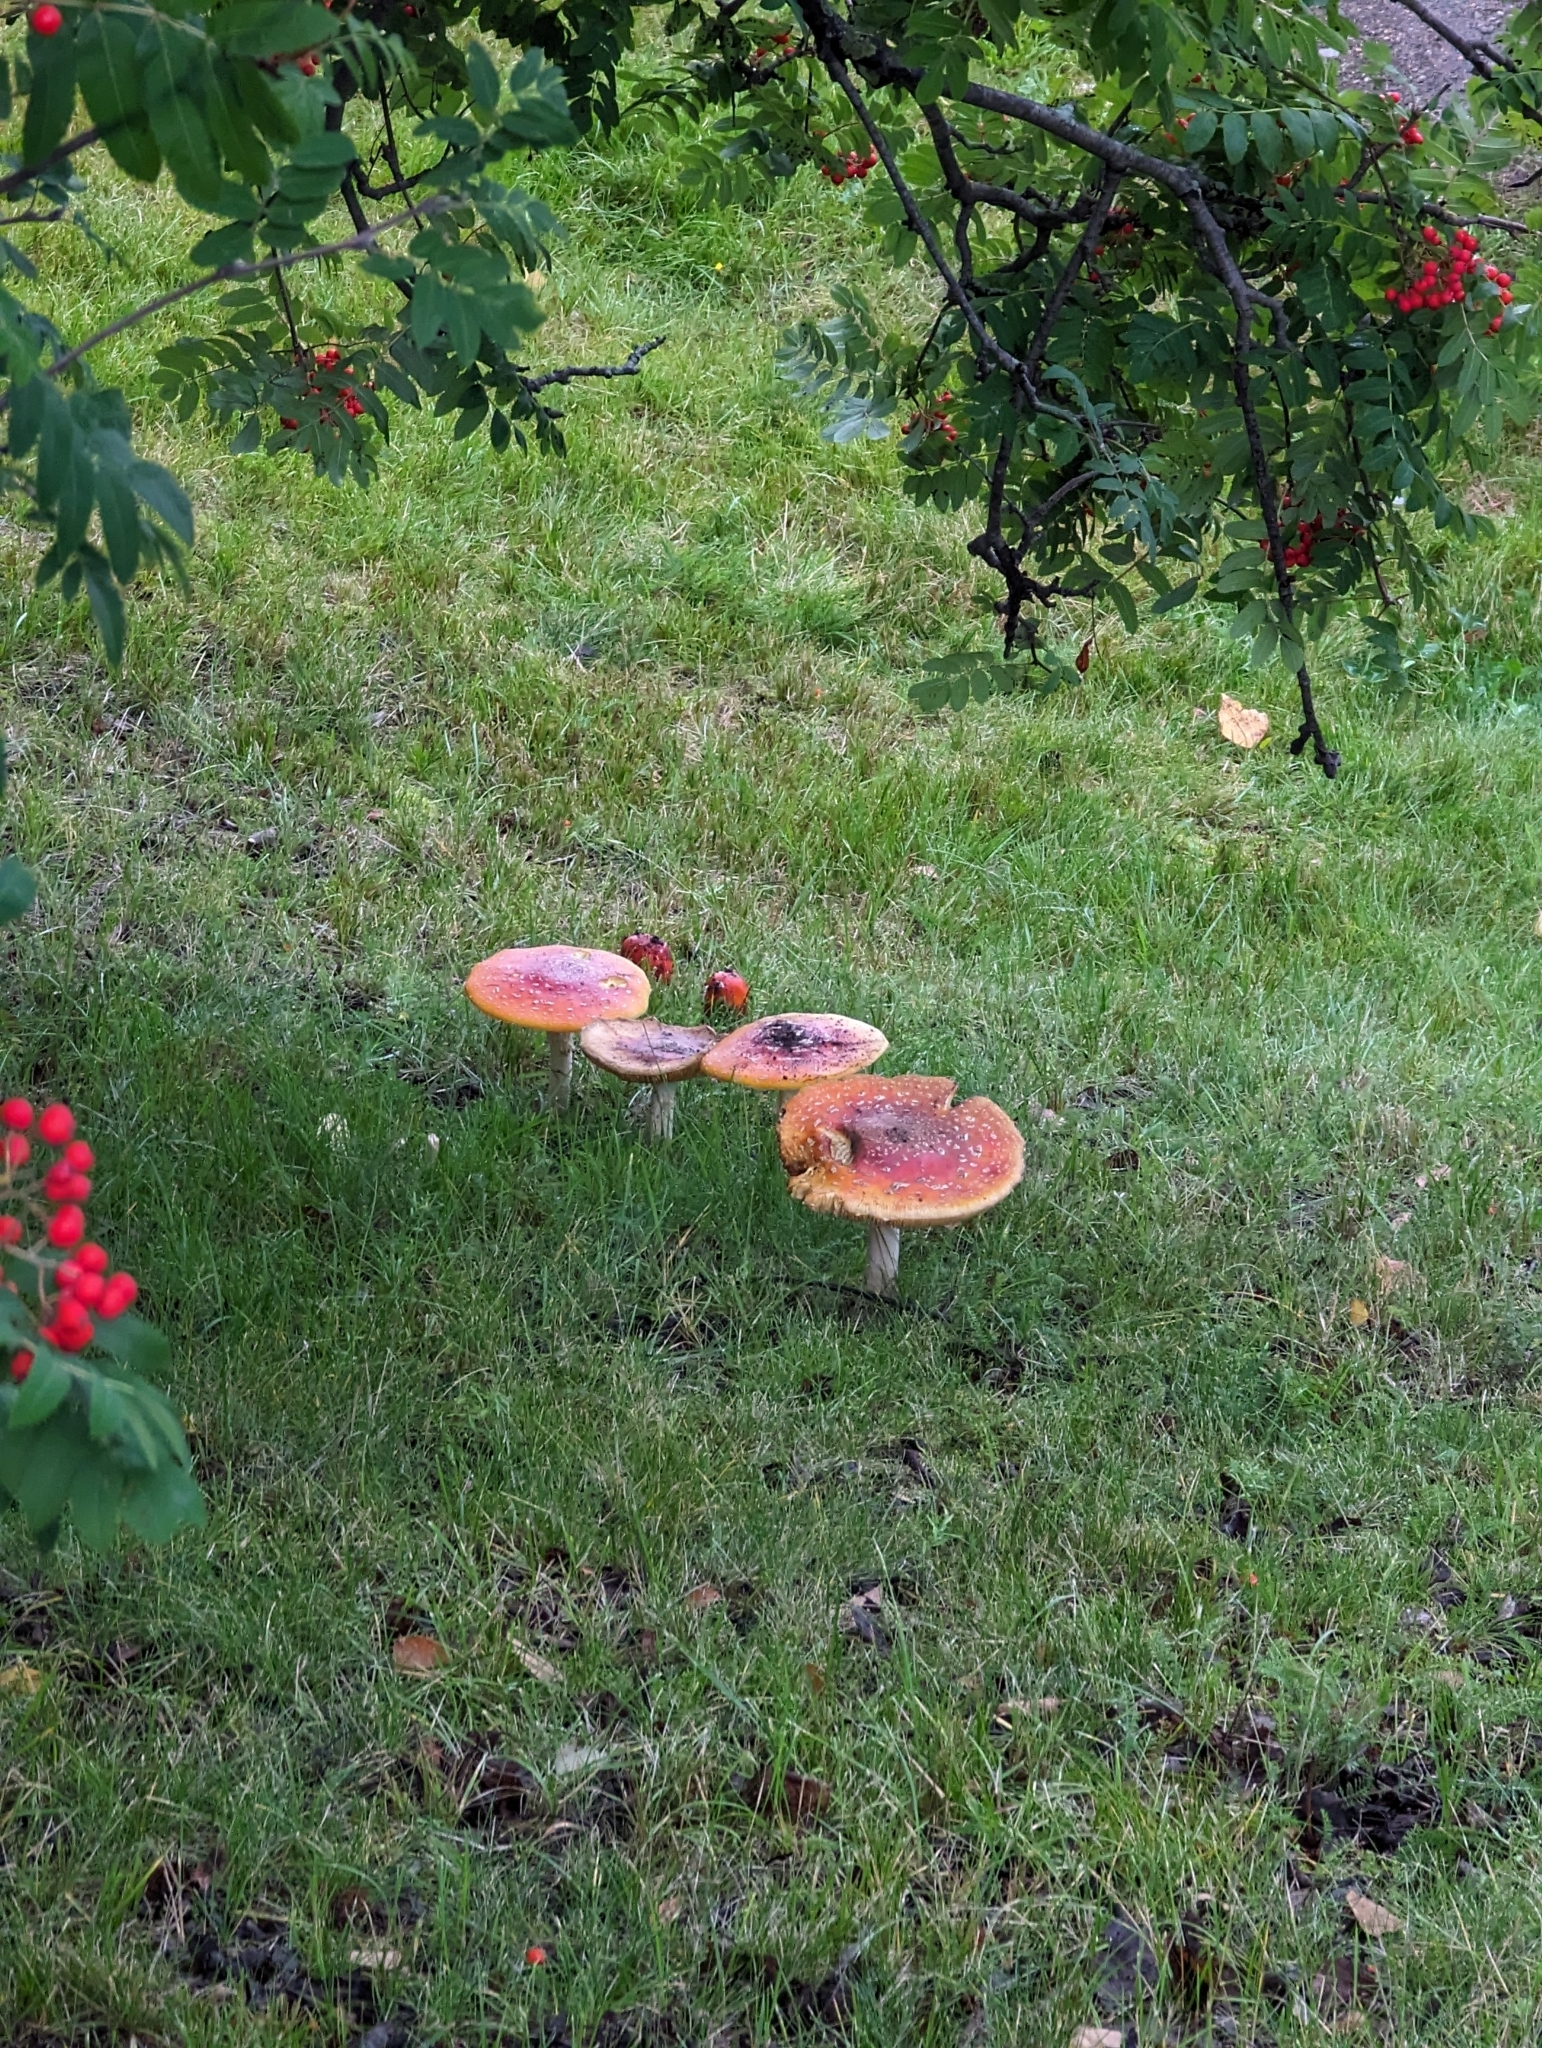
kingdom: Fungi
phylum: Basidiomycota
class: Agaricomycetes
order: Agaricales
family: Amanitaceae
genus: Amanita
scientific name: Amanita muscaria
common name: Fly agaric
